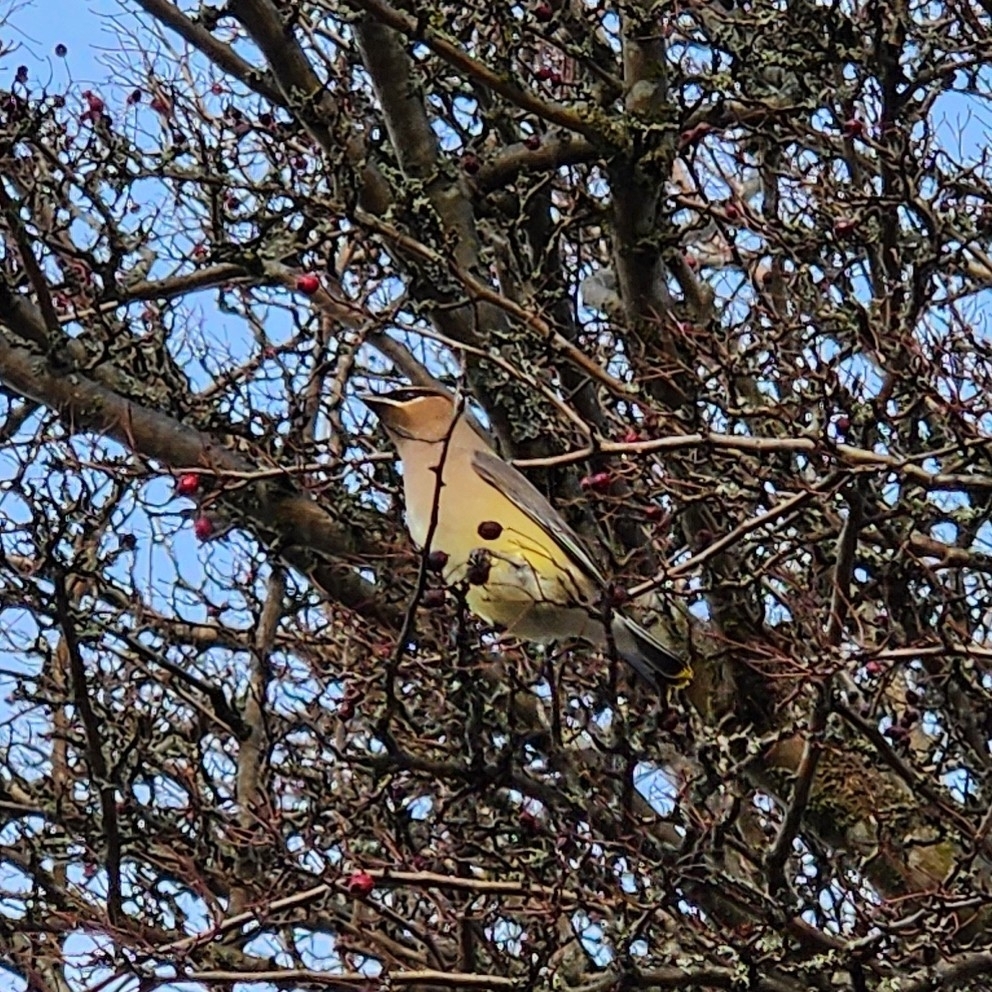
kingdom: Animalia
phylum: Chordata
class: Aves
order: Passeriformes
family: Bombycillidae
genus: Bombycilla
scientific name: Bombycilla cedrorum
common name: Cedar waxwing
